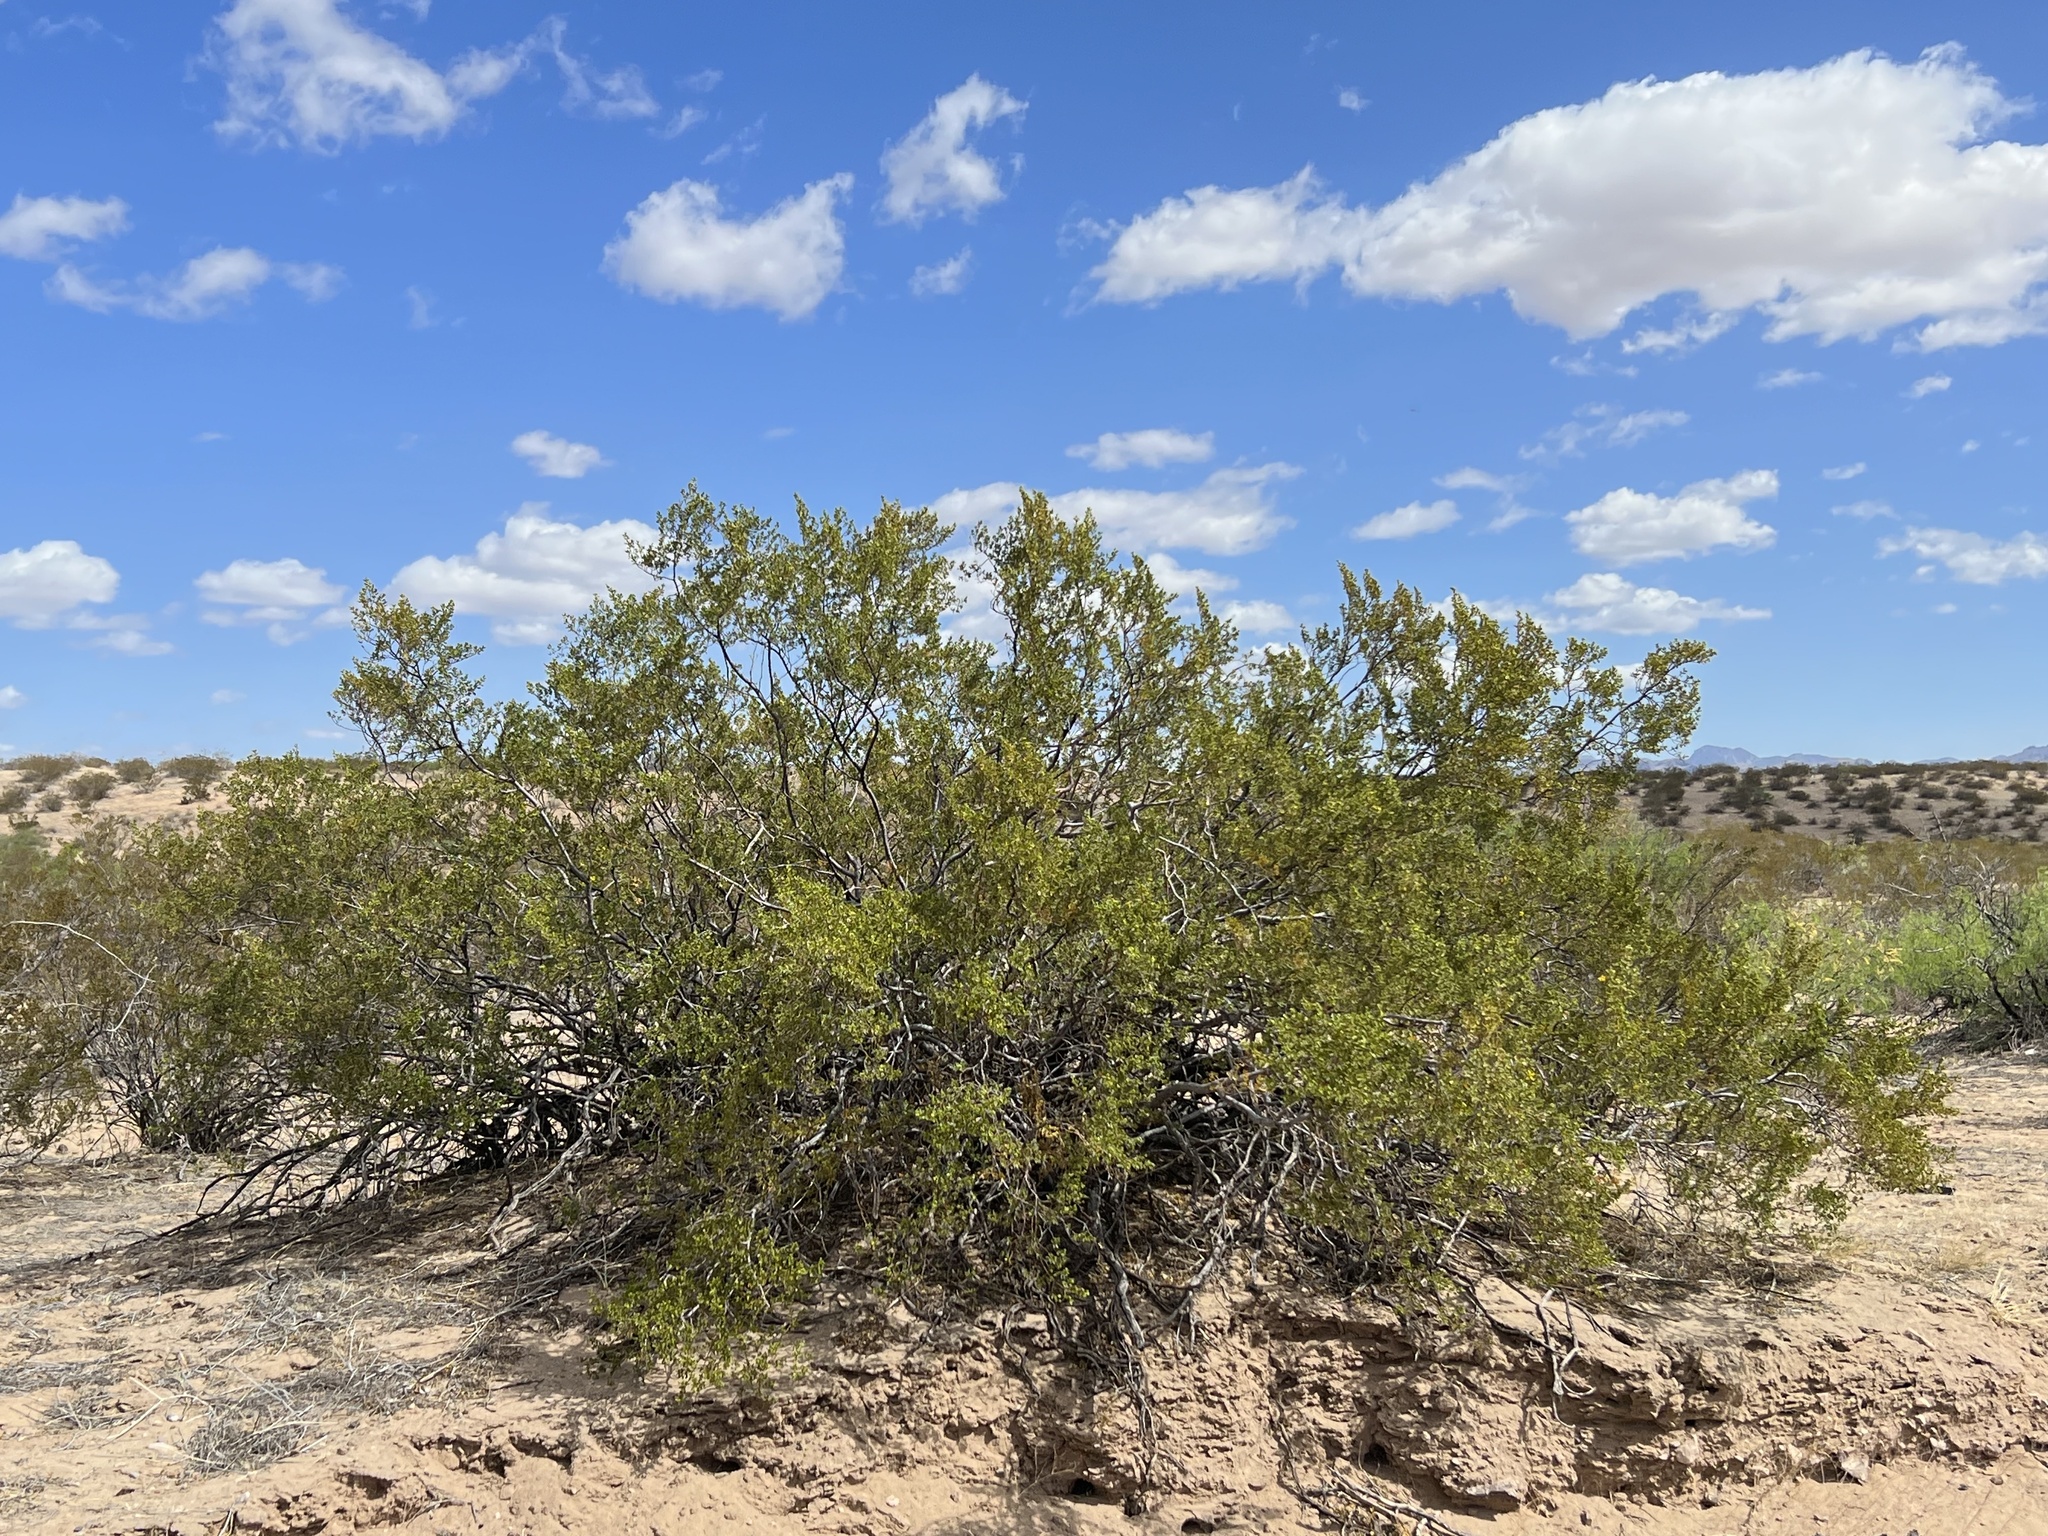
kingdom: Plantae
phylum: Tracheophyta
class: Magnoliopsida
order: Zygophyllales
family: Zygophyllaceae
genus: Larrea
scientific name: Larrea tridentata
